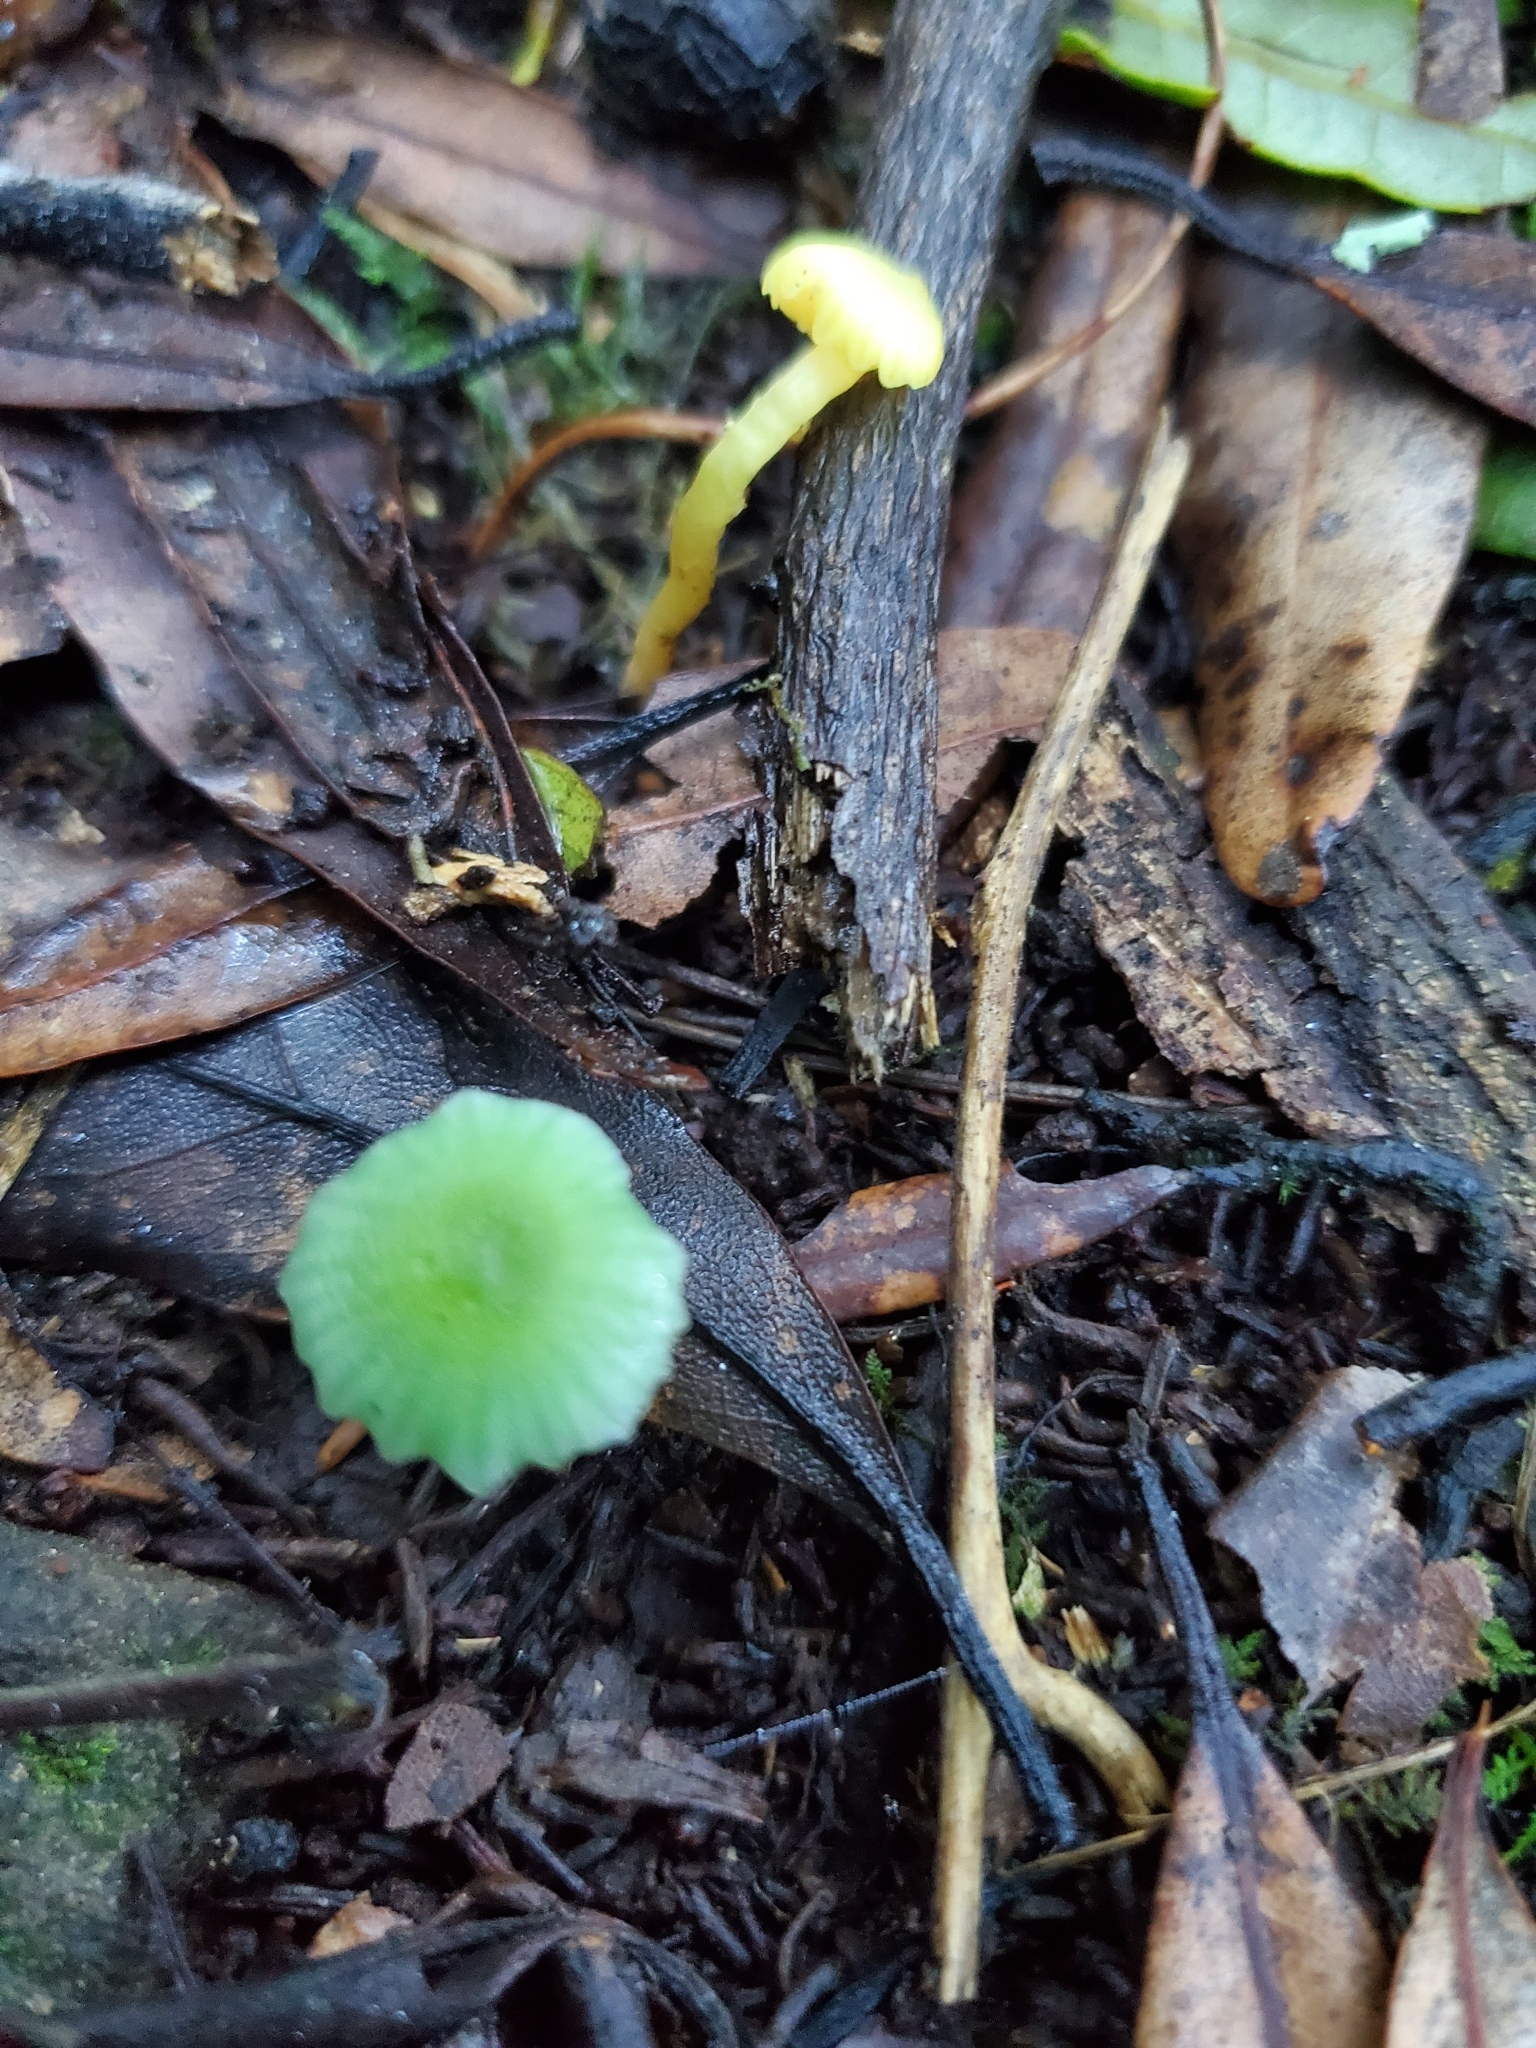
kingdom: Fungi
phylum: Basidiomycota
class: Agaricomycetes
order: Agaricales
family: Hygrophoraceae
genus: Gliophorus
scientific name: Gliophorus viridis
